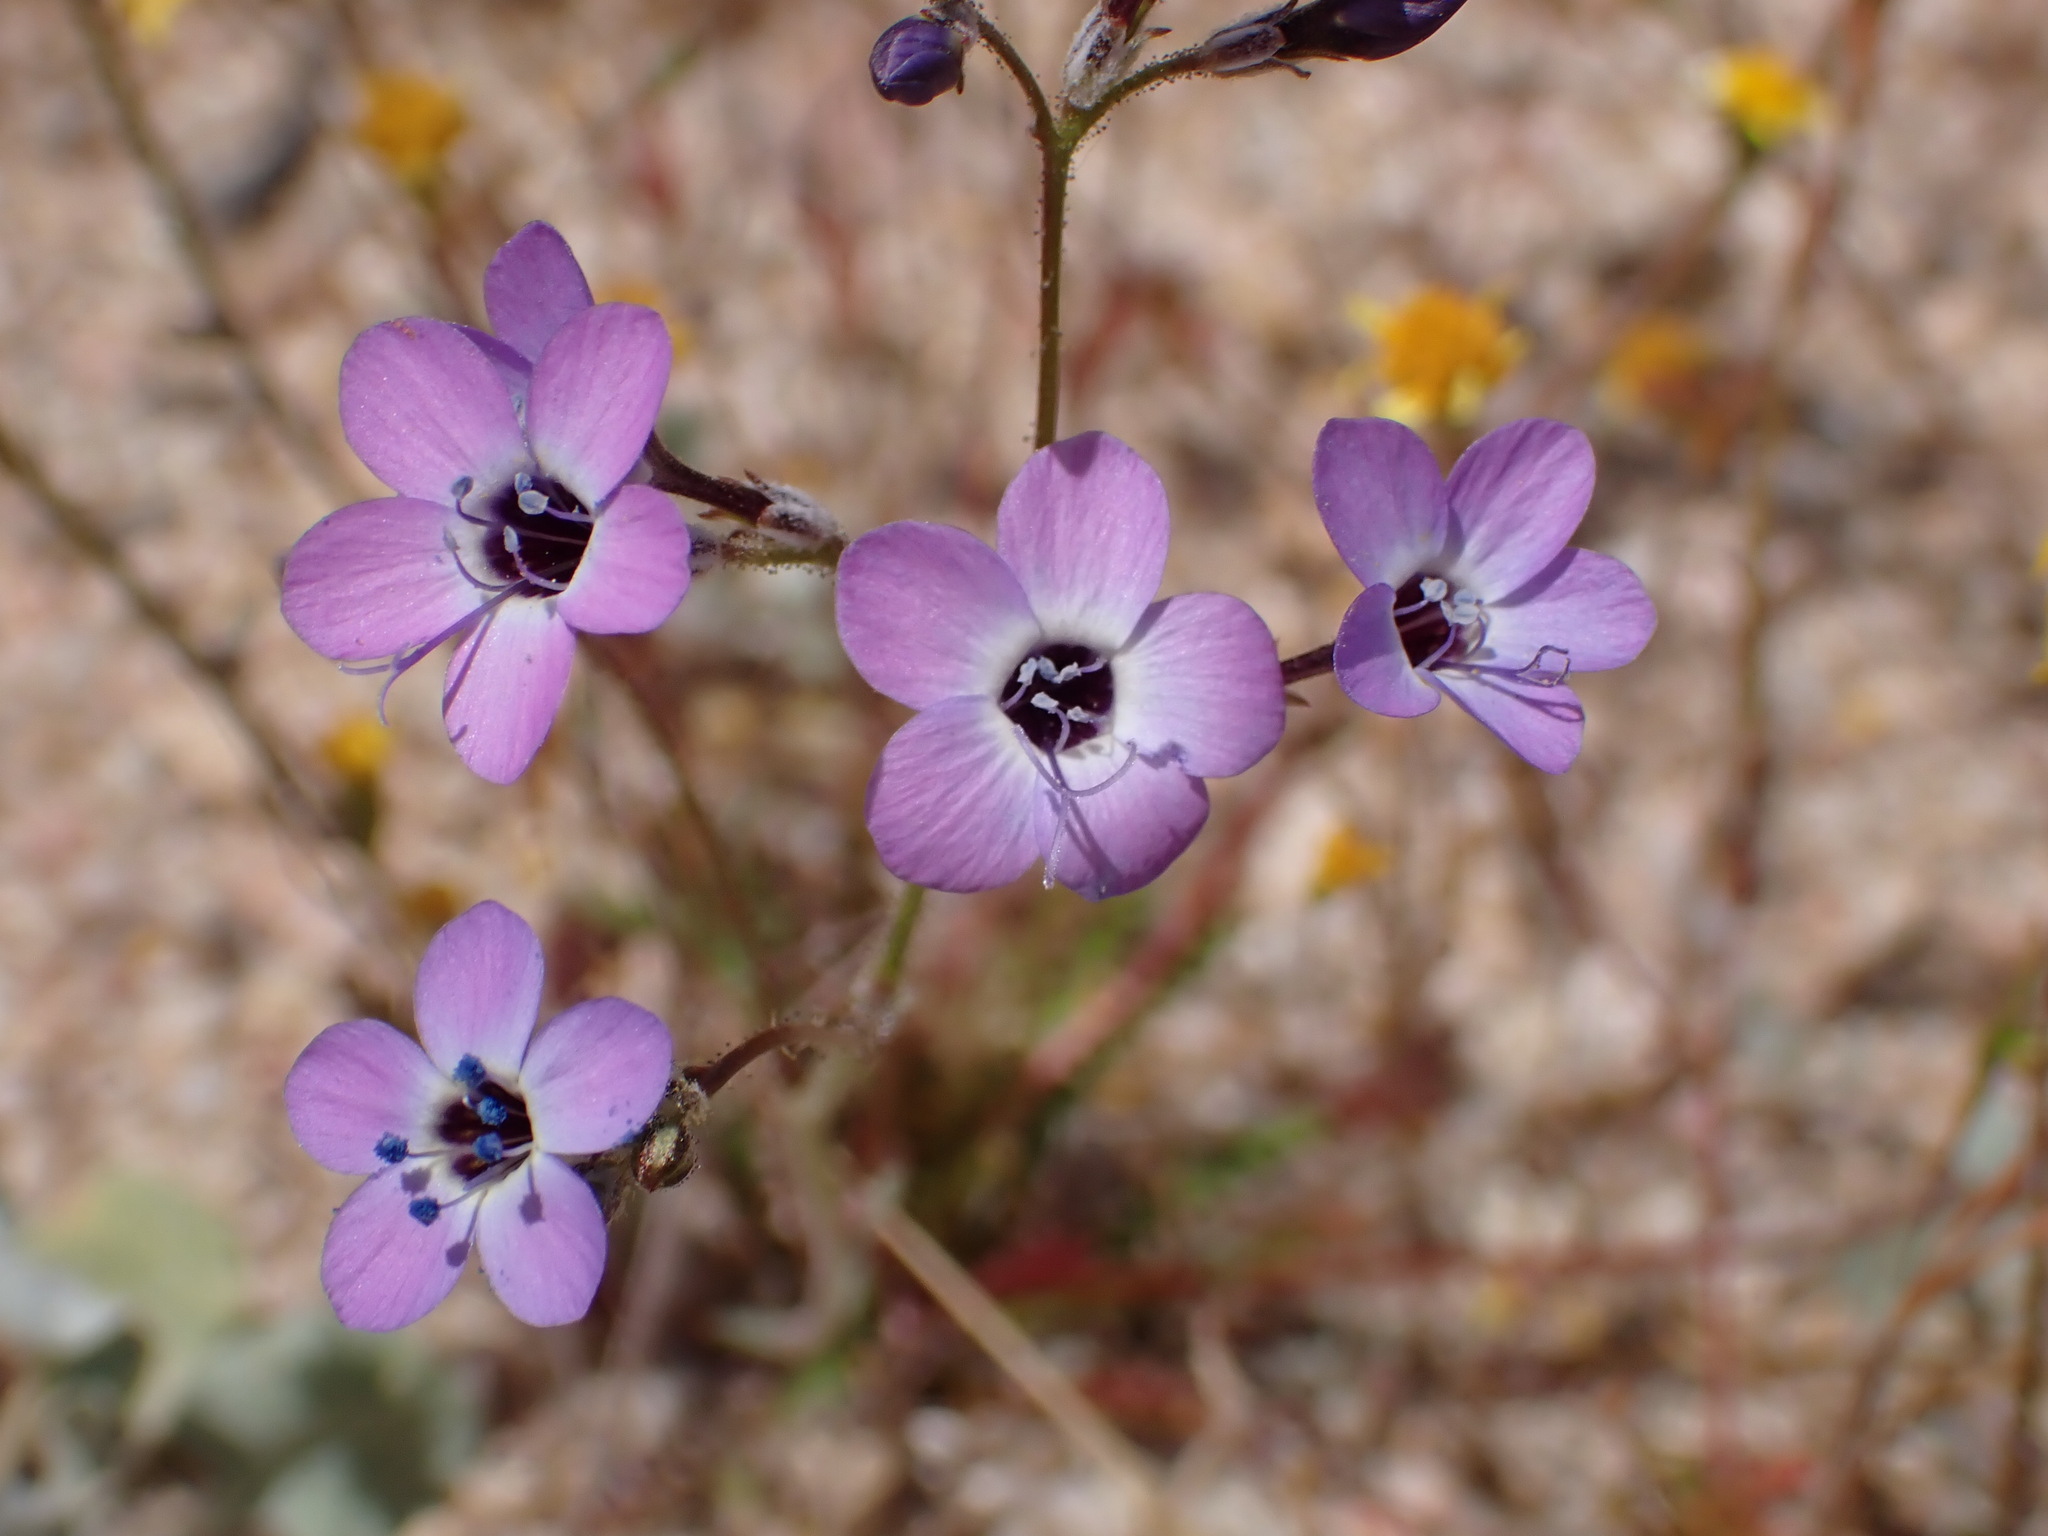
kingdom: Plantae
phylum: Tracheophyta
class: Magnoliopsida
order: Ericales
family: Polemoniaceae
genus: Gilia
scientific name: Gilia tenuiflora
